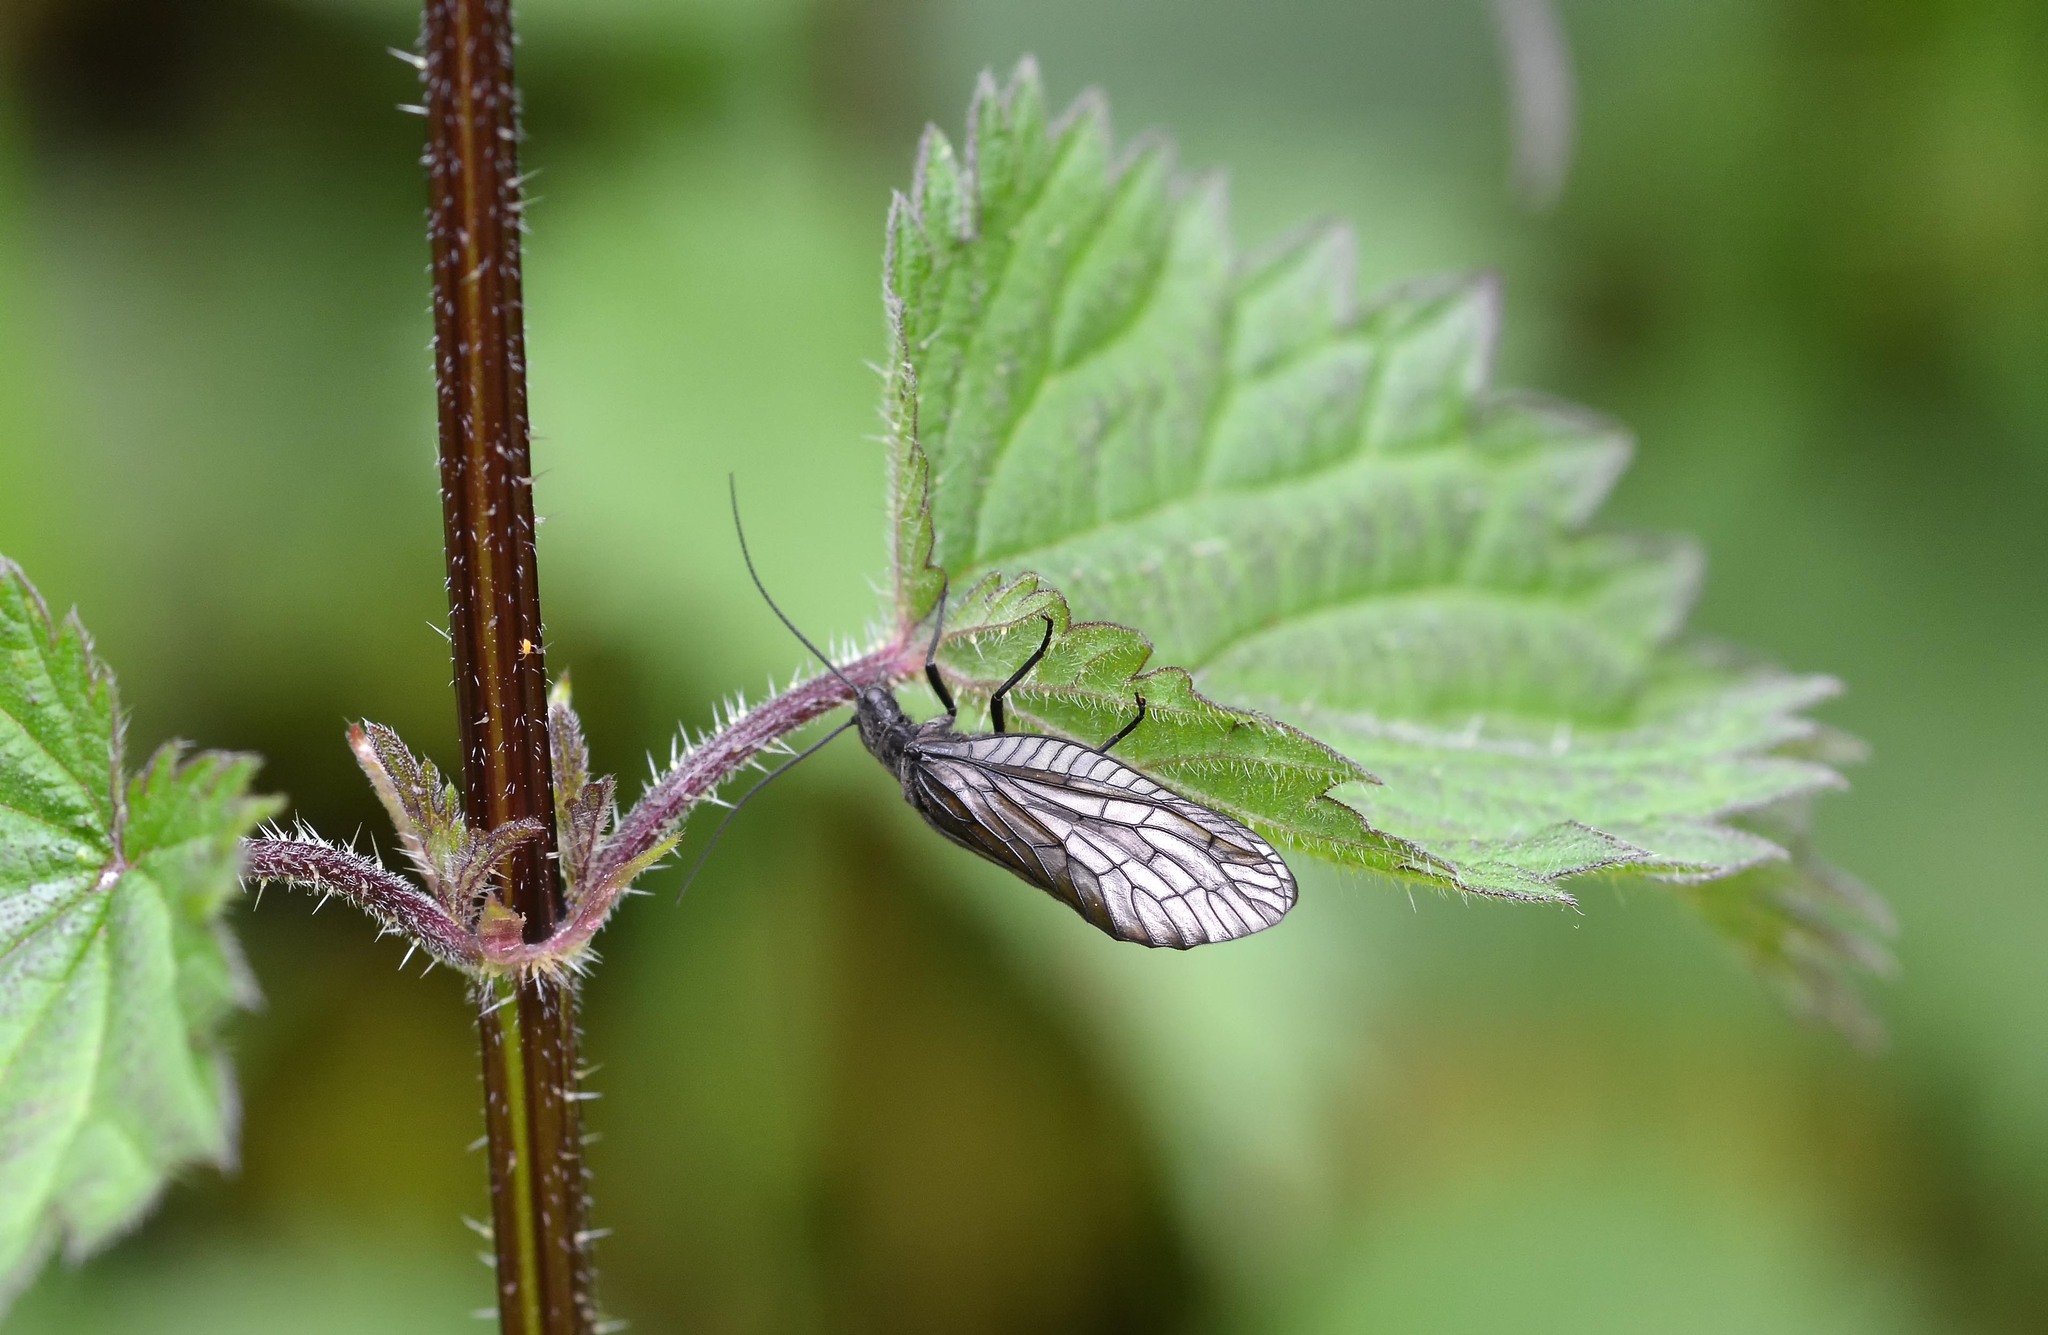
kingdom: Animalia
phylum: Arthropoda
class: Insecta
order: Megaloptera
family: Sialidae
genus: Sialis
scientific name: Sialis
